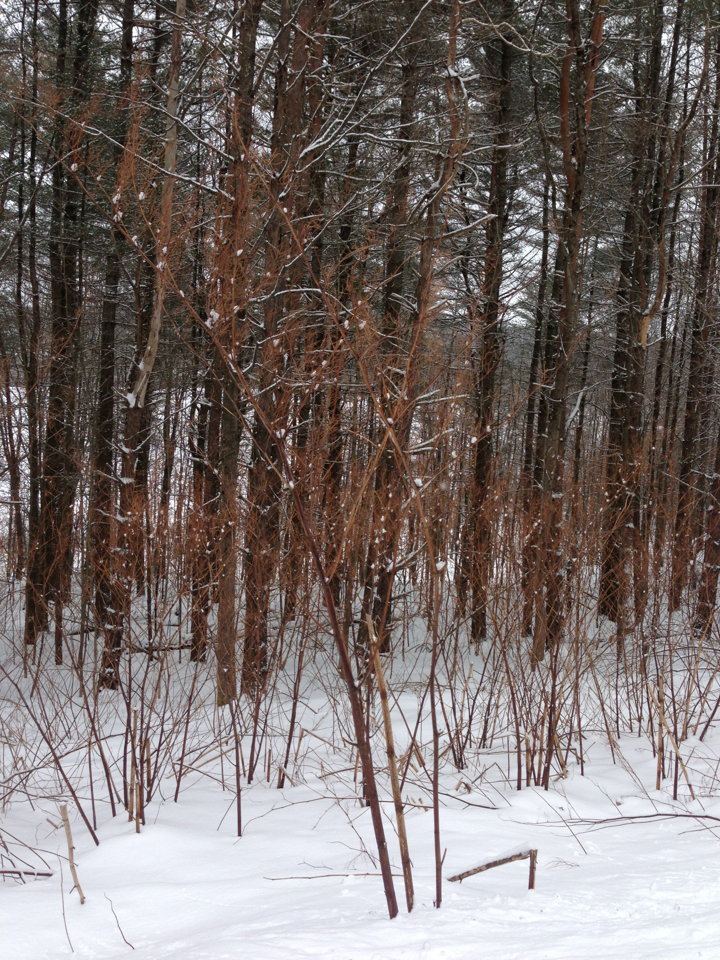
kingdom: Plantae
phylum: Tracheophyta
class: Magnoliopsida
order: Caryophyllales
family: Polygonaceae
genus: Reynoutria
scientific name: Reynoutria japonica
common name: Japanese knotweed
